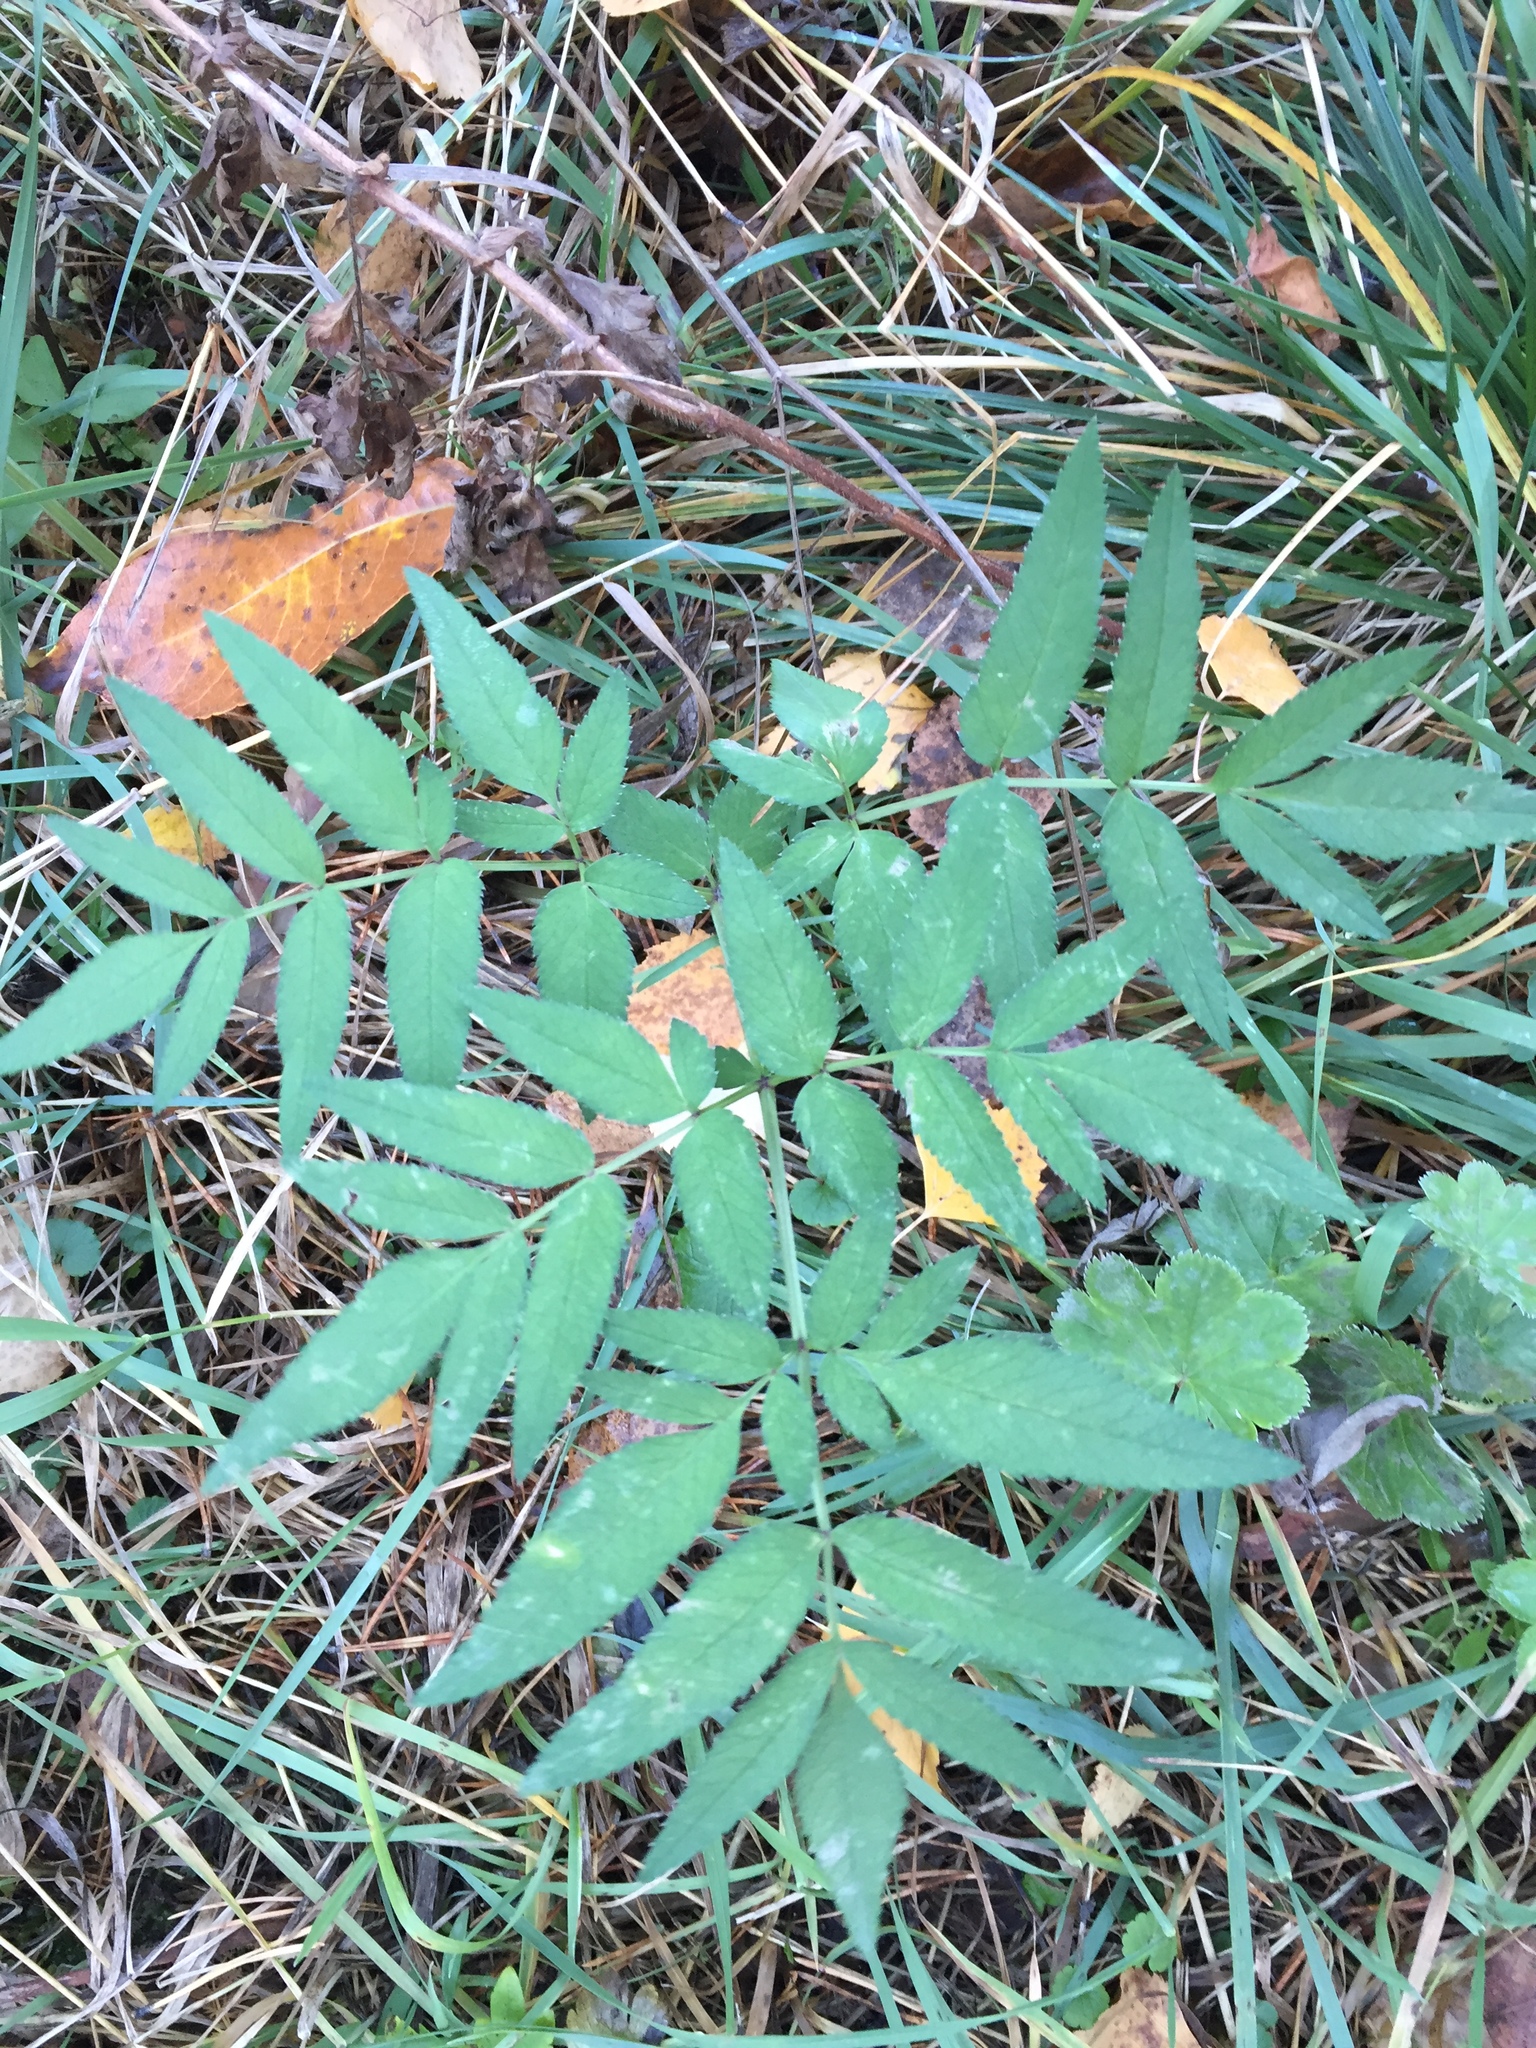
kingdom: Plantae
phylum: Tracheophyta
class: Magnoliopsida
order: Apiales
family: Apiaceae
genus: Angelica
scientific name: Angelica sylvestris
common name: Wild angelica
